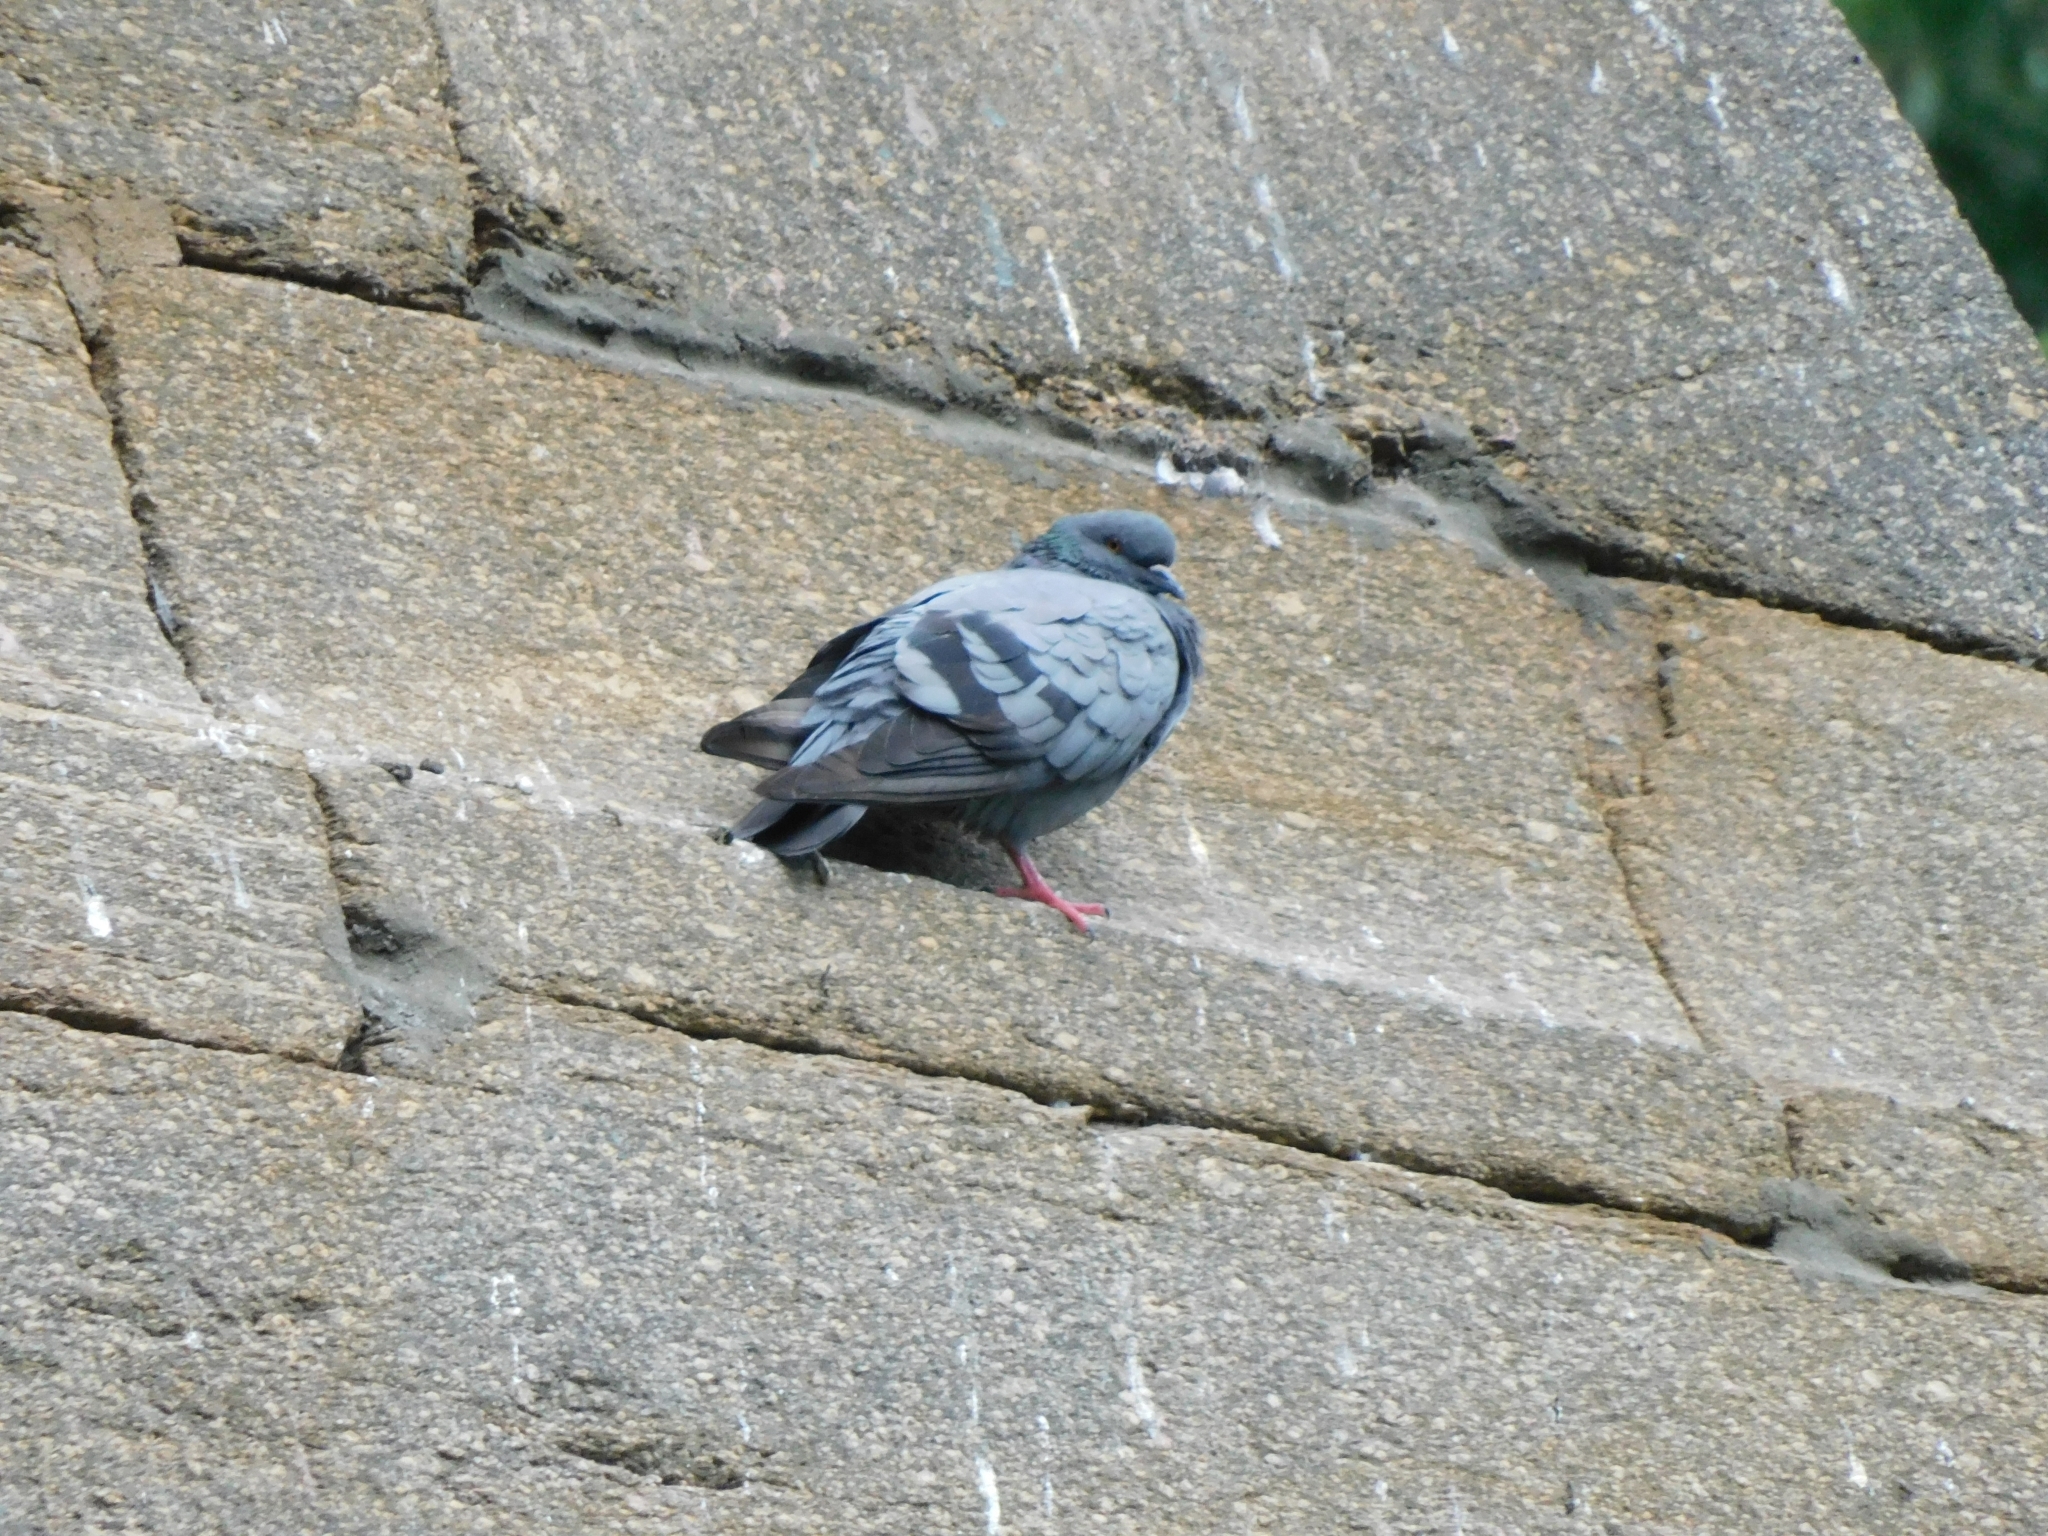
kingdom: Animalia
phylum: Chordata
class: Aves
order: Columbiformes
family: Columbidae
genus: Columba
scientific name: Columba livia
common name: Rock pigeon
